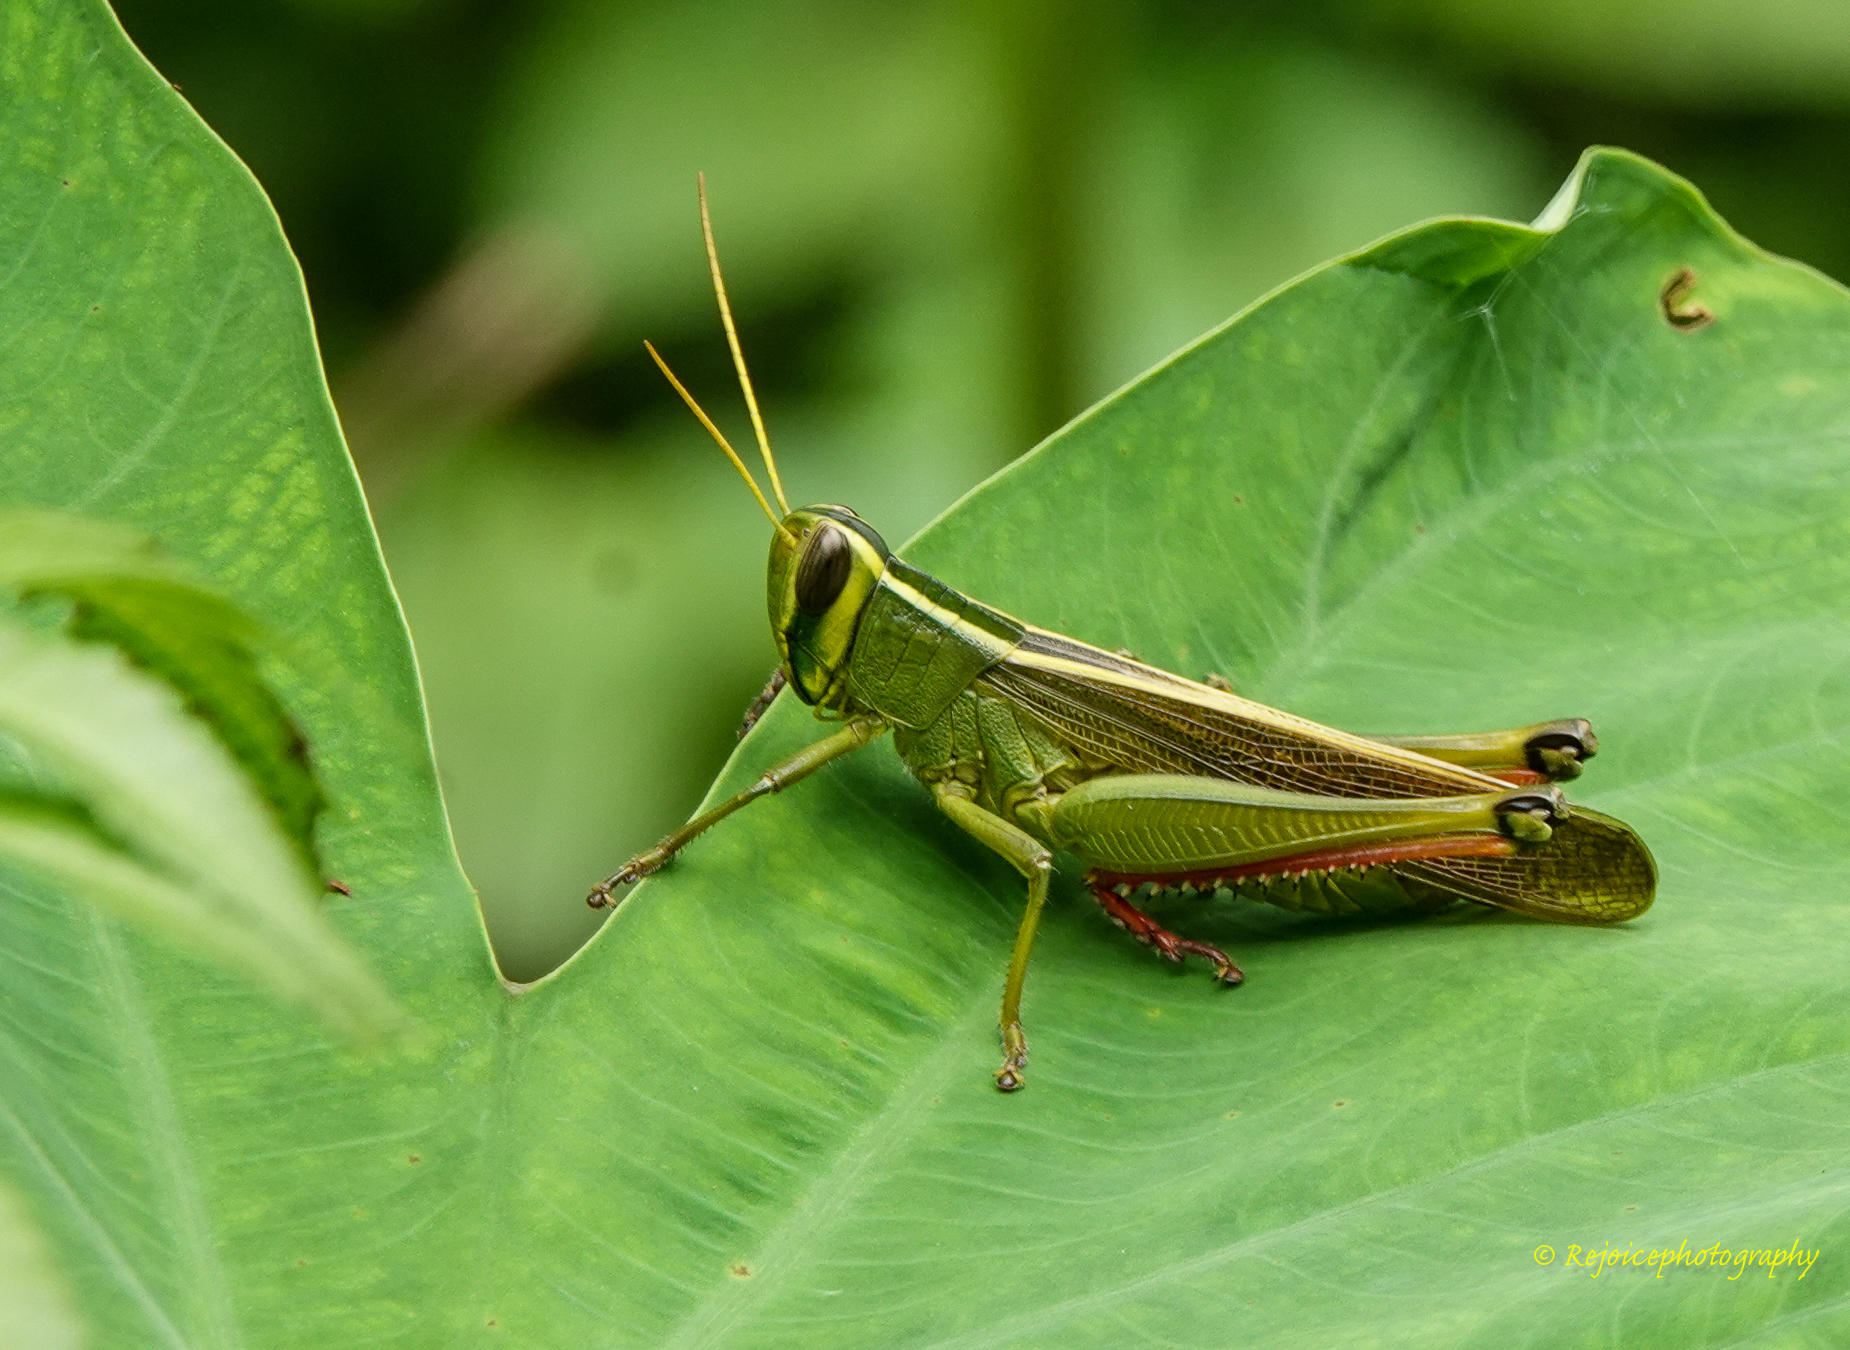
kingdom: Animalia
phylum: Arthropoda
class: Insecta
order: Orthoptera
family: Acrididae
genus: Choroedocus
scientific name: Choroedocus robustus
